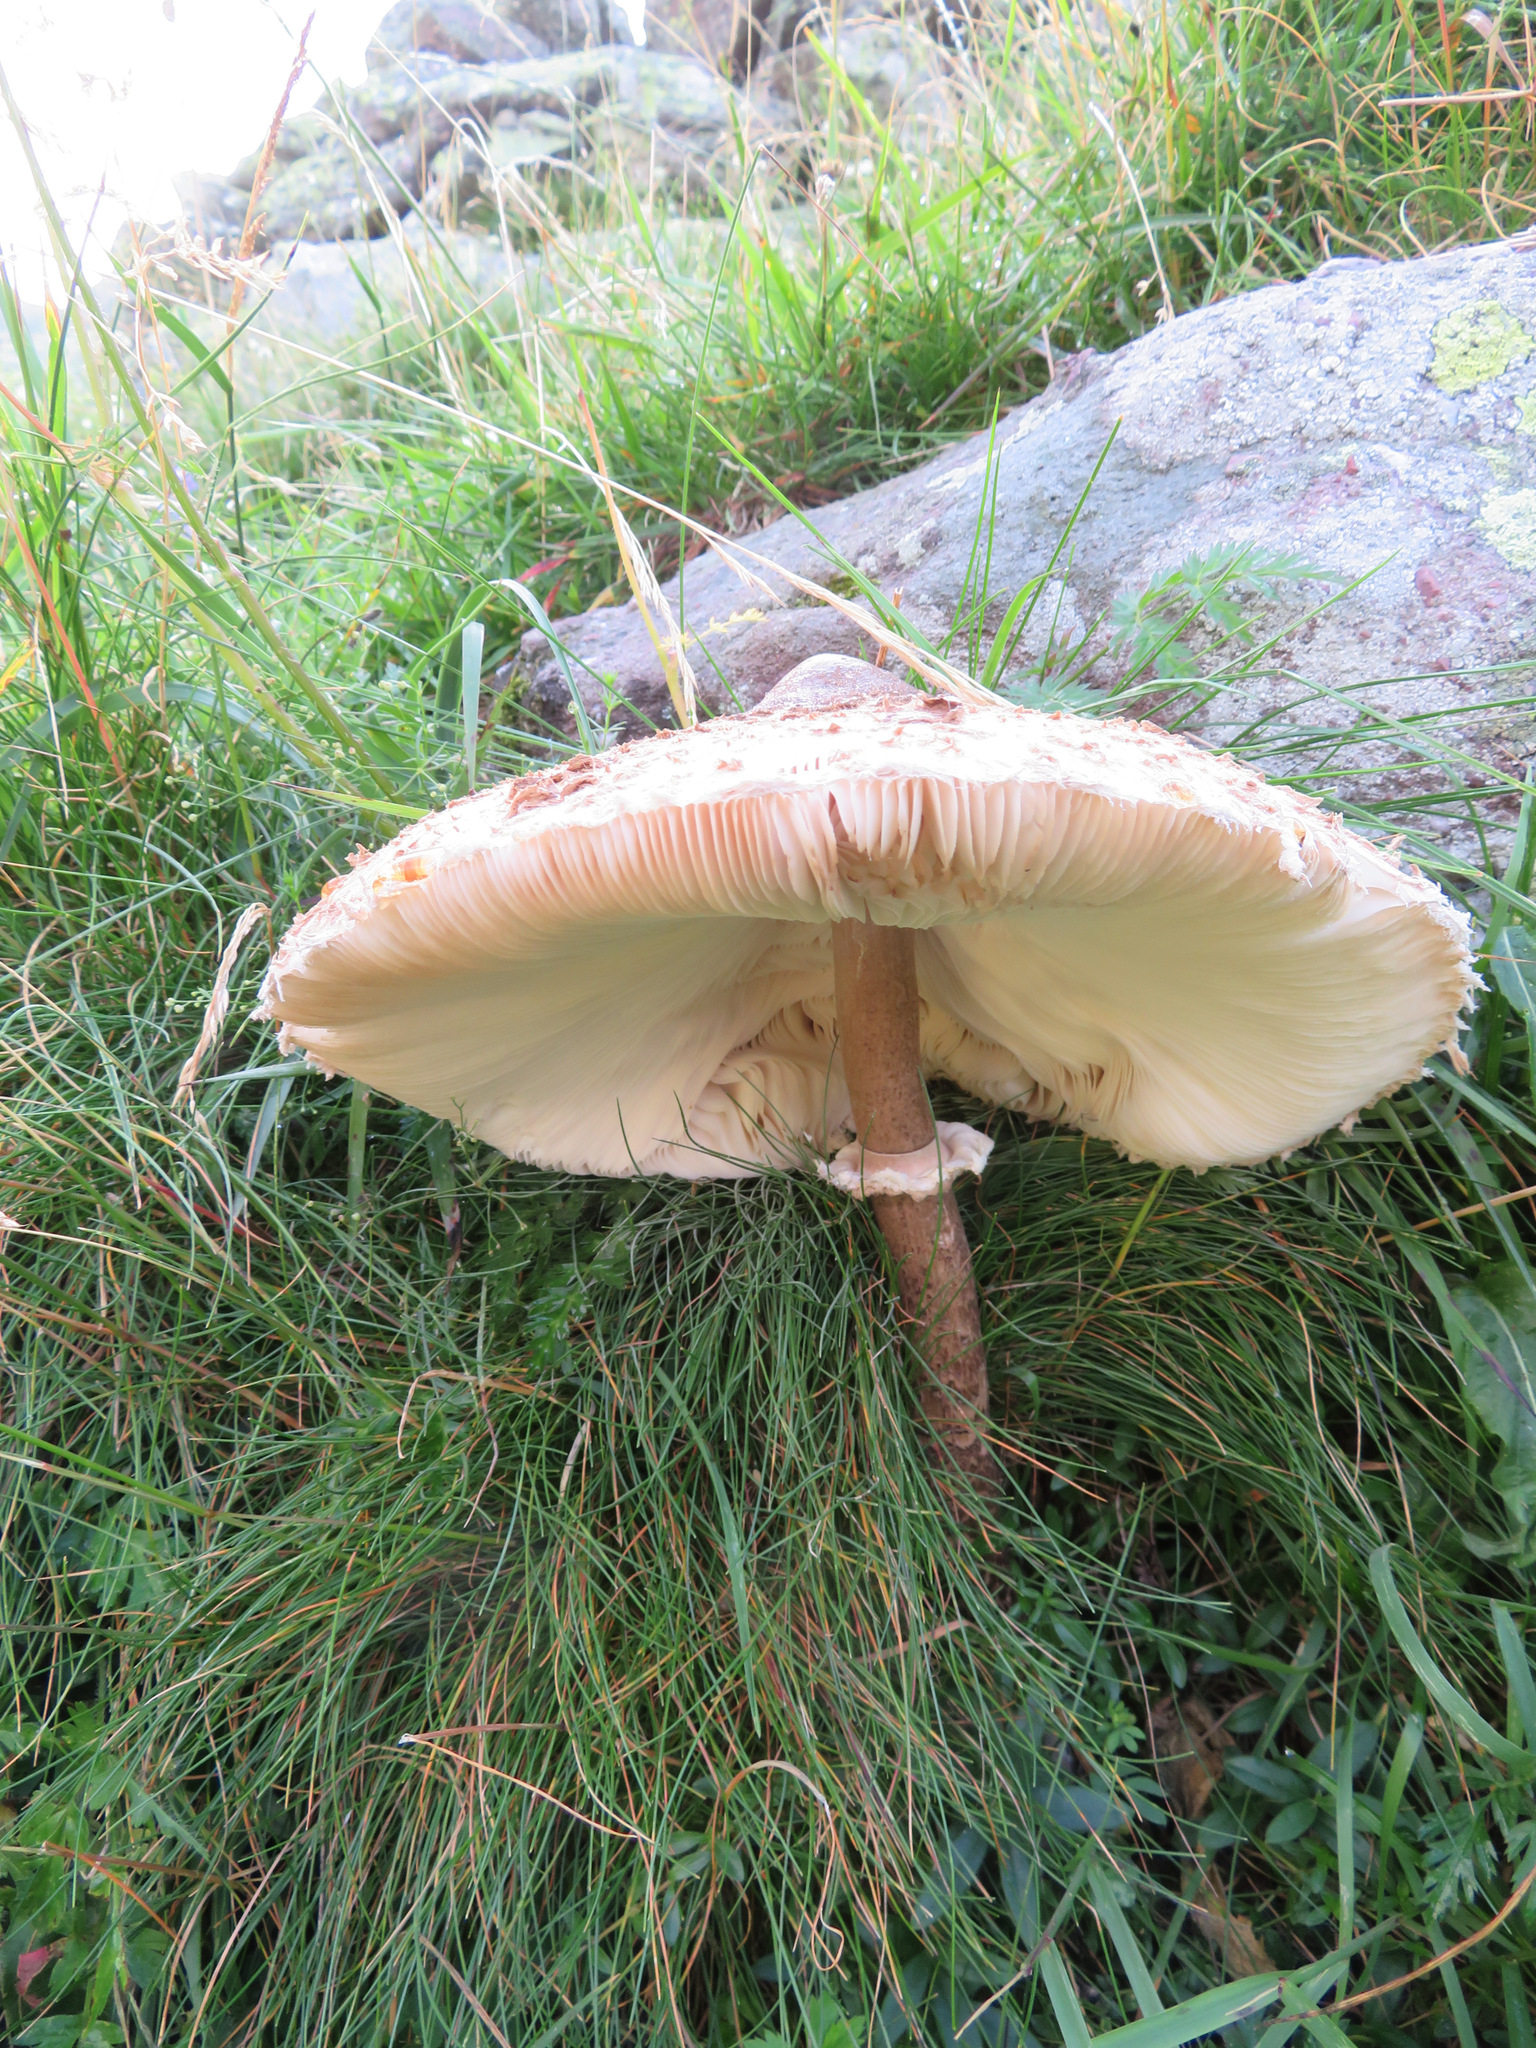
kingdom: Fungi
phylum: Basidiomycota
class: Agaricomycetes
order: Agaricales
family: Agaricaceae
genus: Macrolepiota
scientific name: Macrolepiota procera
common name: Parasol
